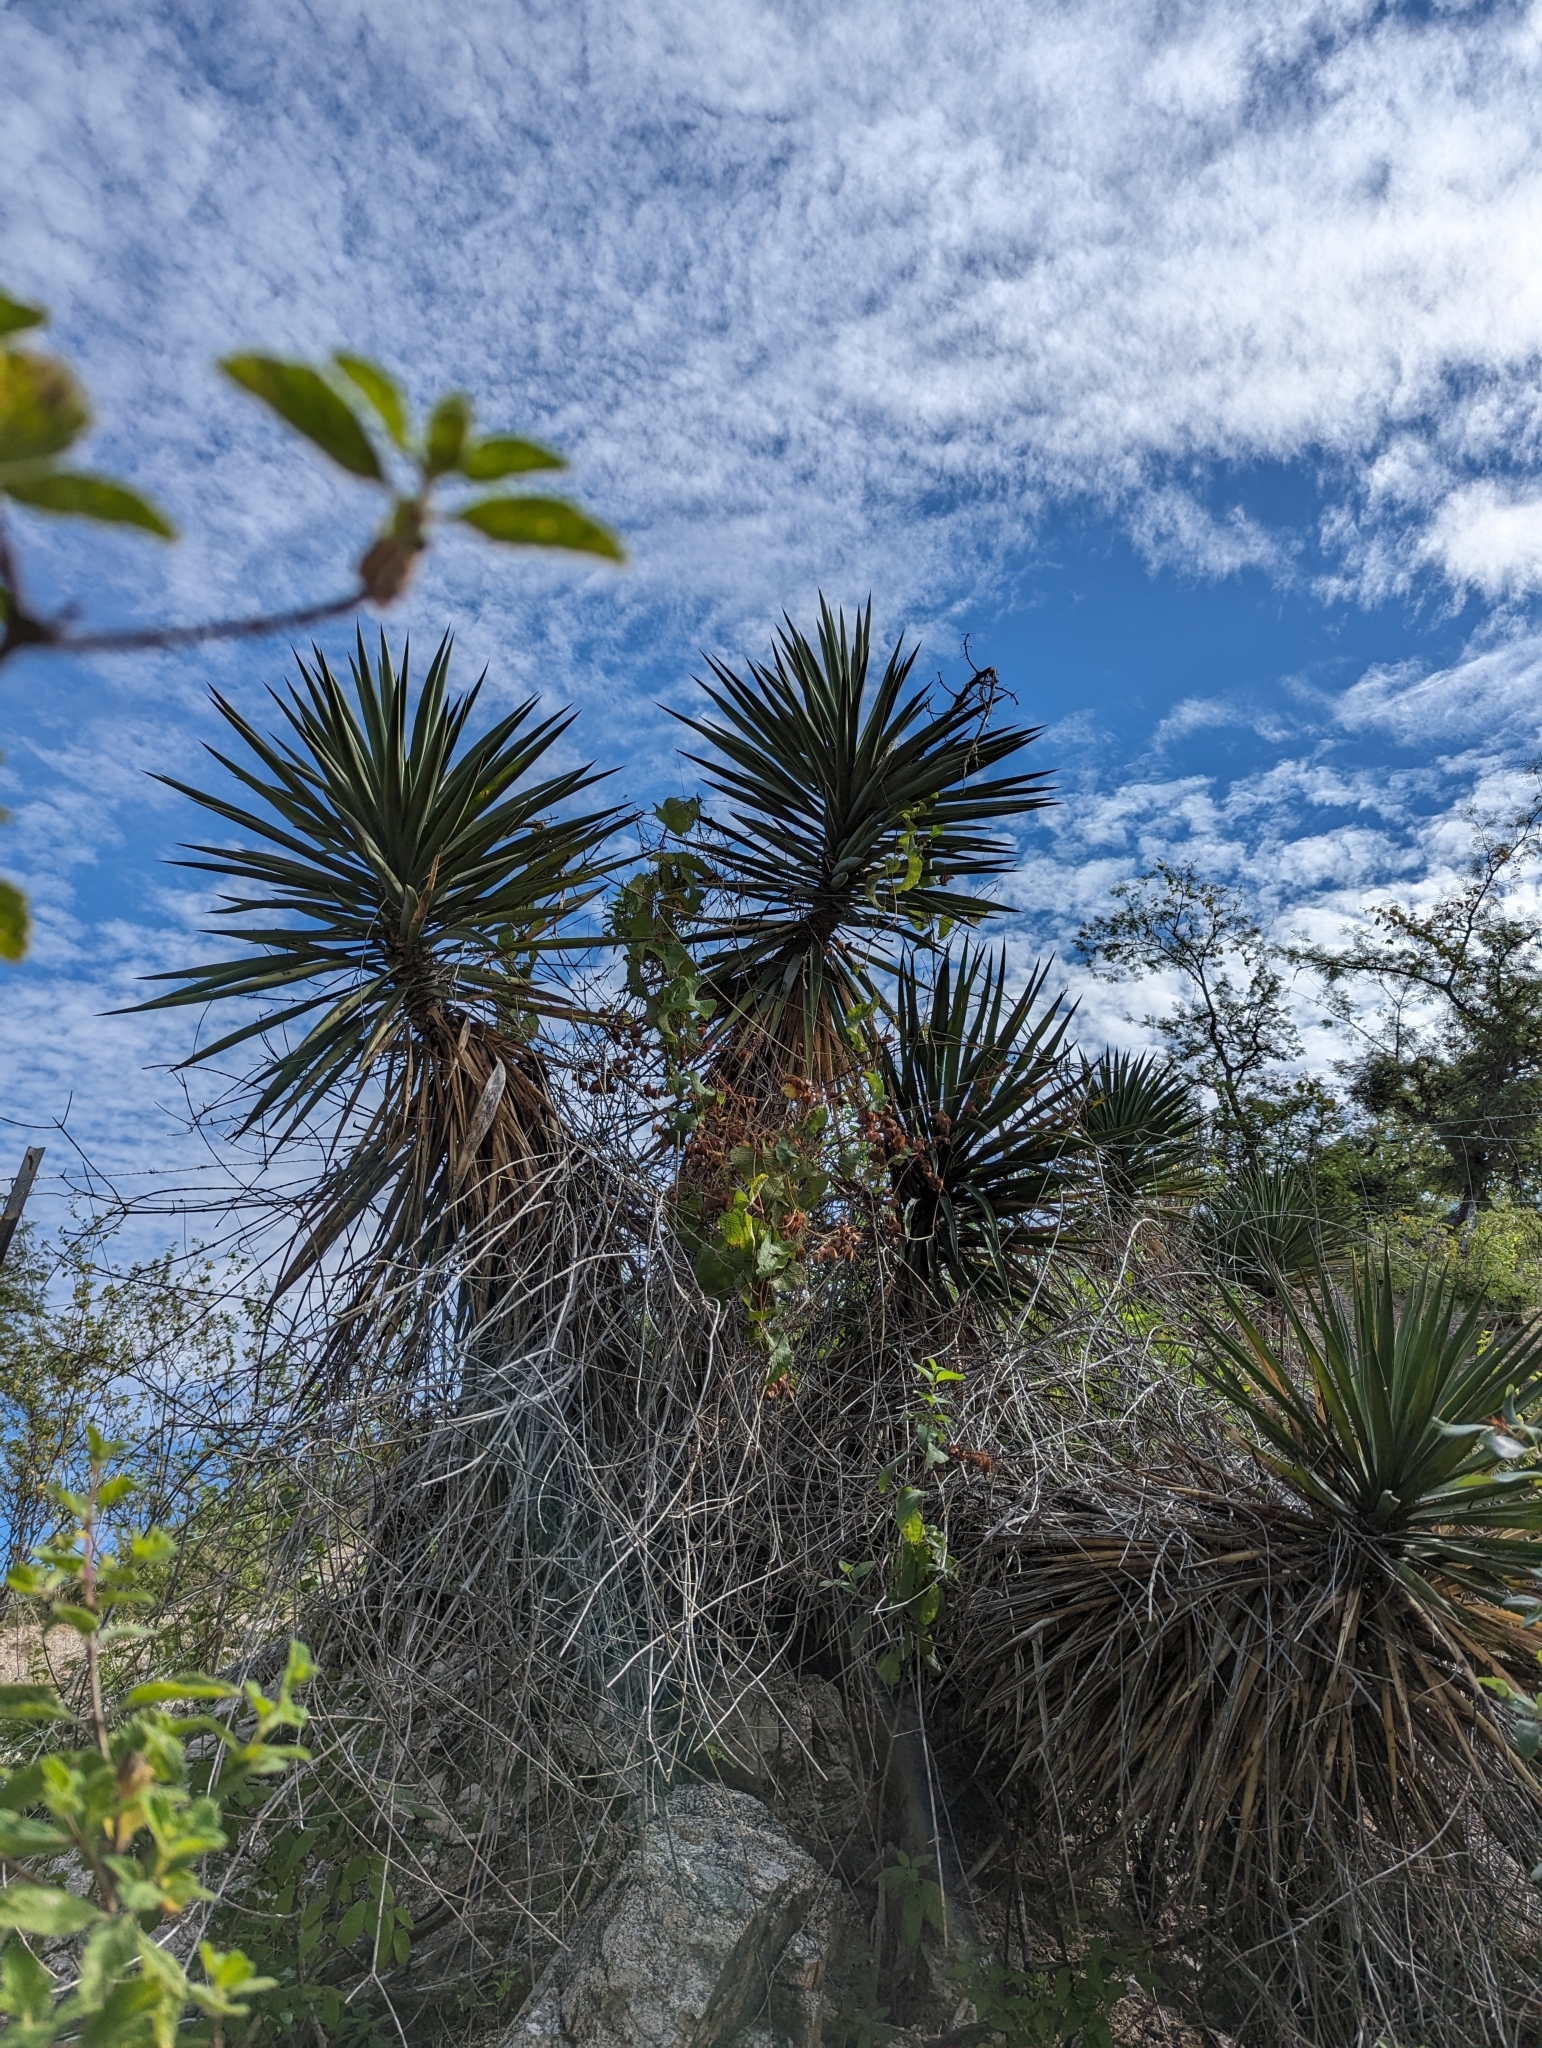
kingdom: Plantae
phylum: Tracheophyta
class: Liliopsida
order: Asparagales
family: Asparagaceae
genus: Yucca
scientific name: Yucca capensis
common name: Cape region yucca
